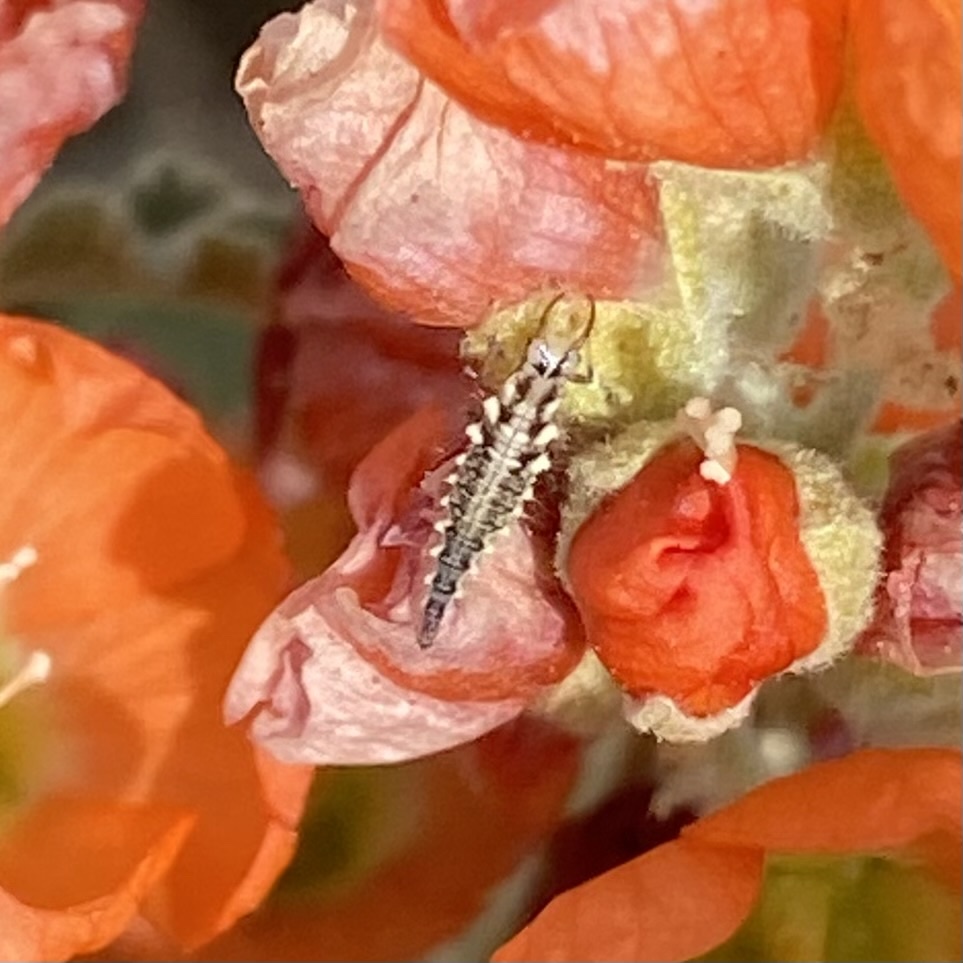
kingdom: Animalia
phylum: Arthropoda
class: Insecta
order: Neuroptera
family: Chrysopidae
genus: Chrysoperla
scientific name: Chrysoperla
